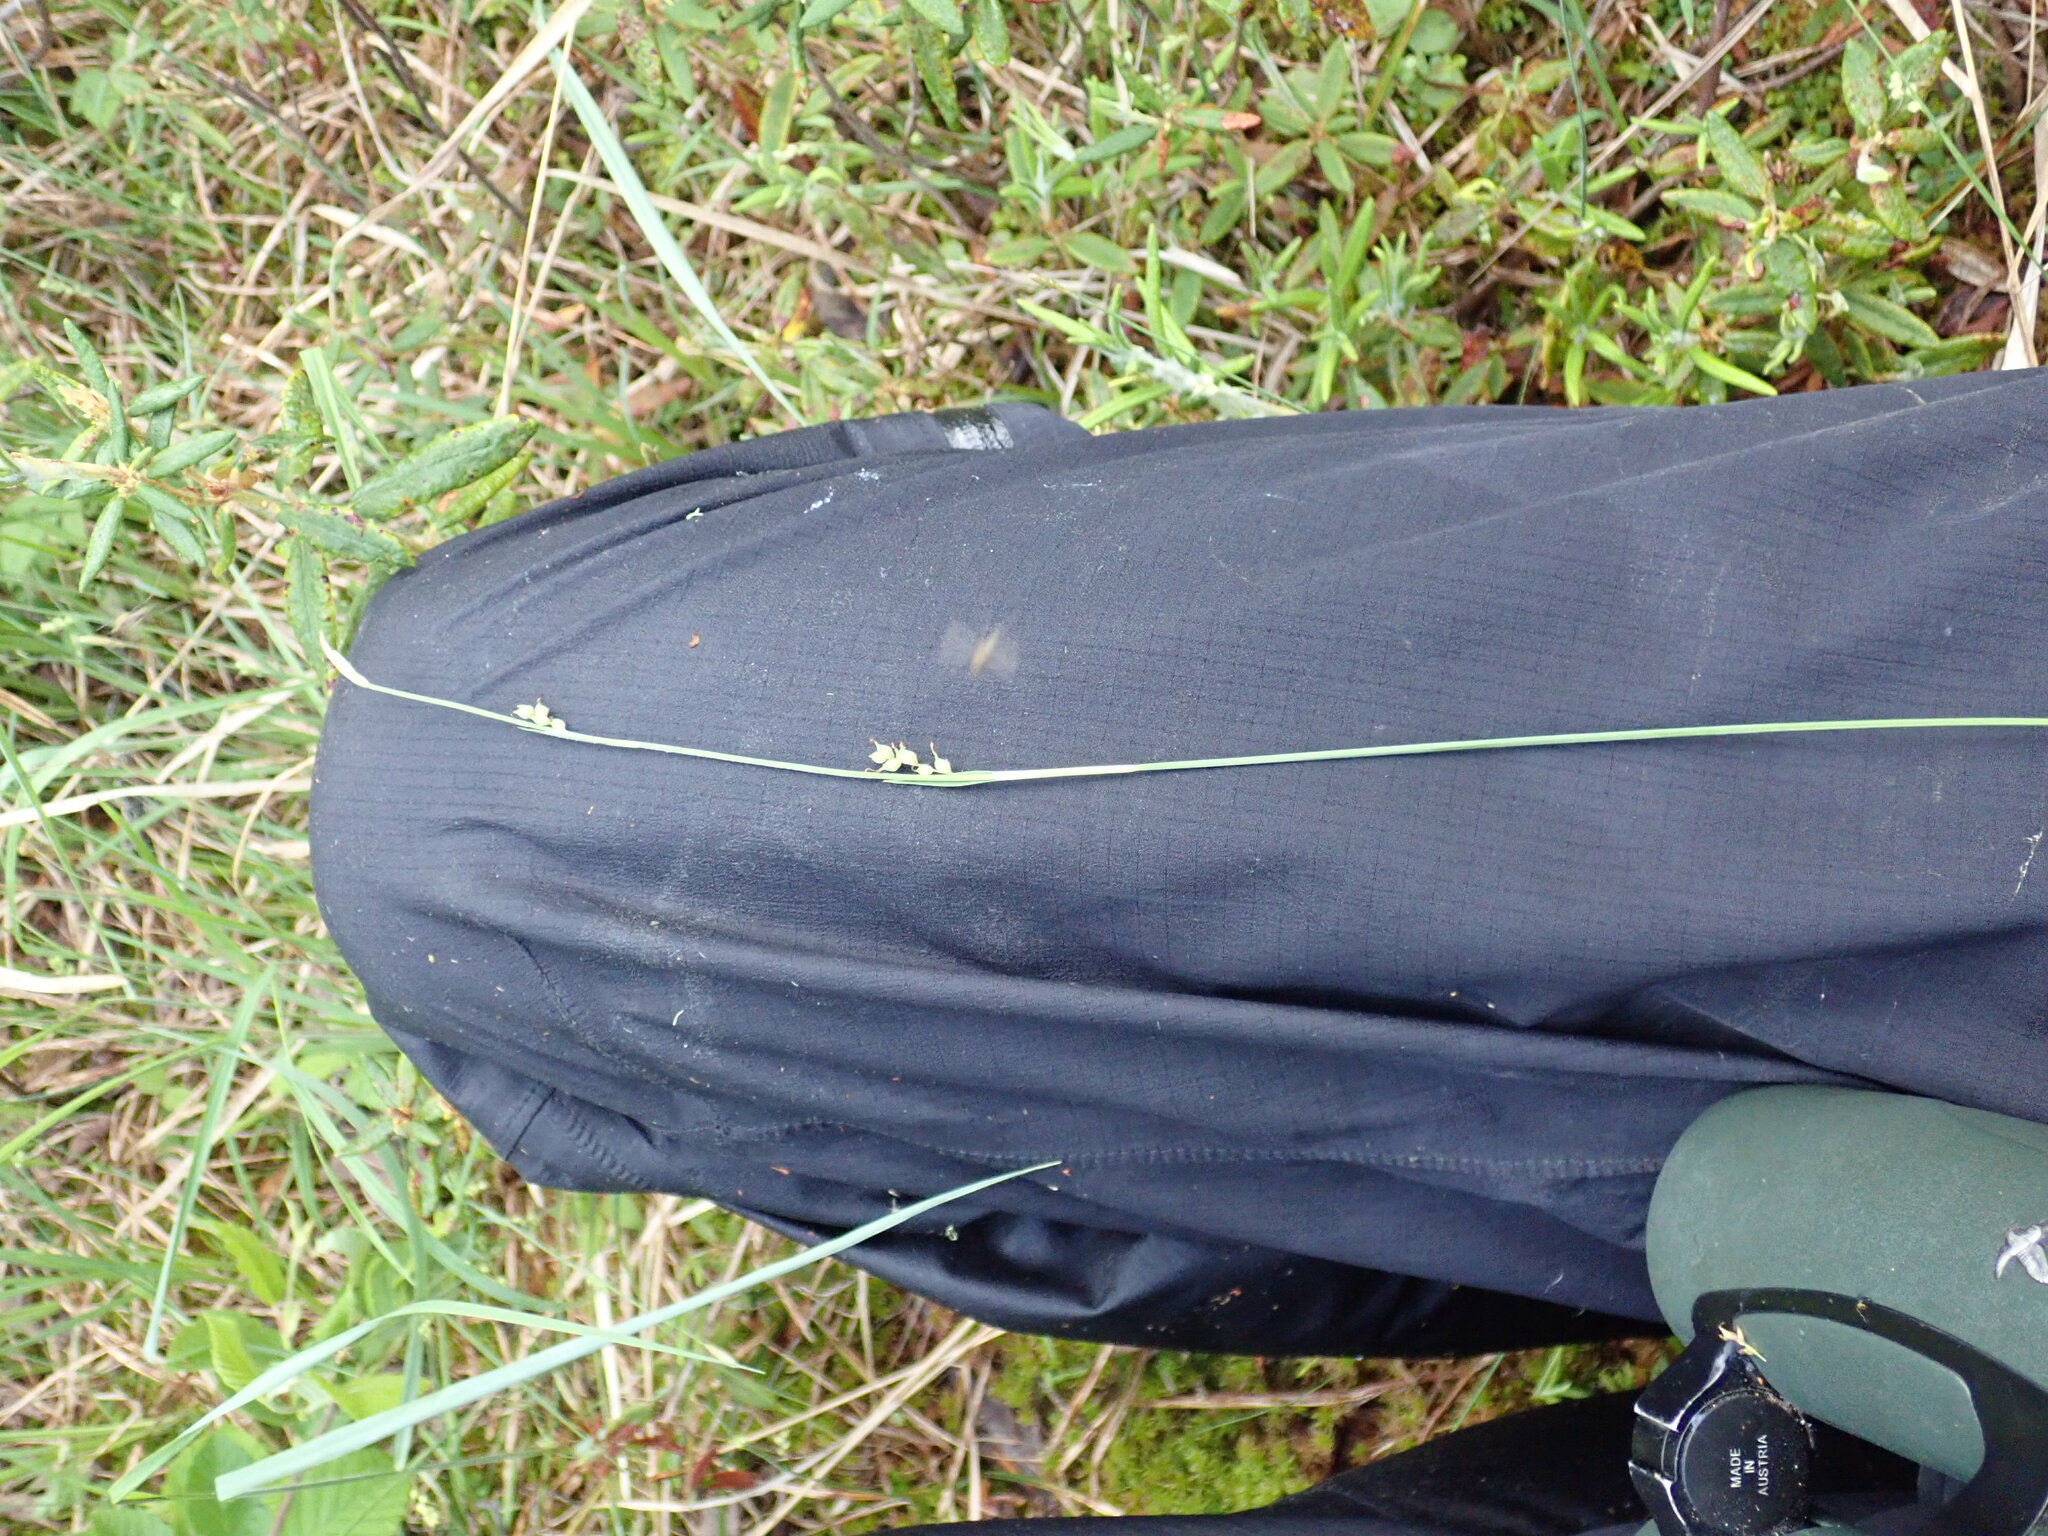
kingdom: Plantae
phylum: Tracheophyta
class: Liliopsida
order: Poales
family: Cyperaceae
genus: Carex
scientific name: Carex vaginata
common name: Sheathed sedge
